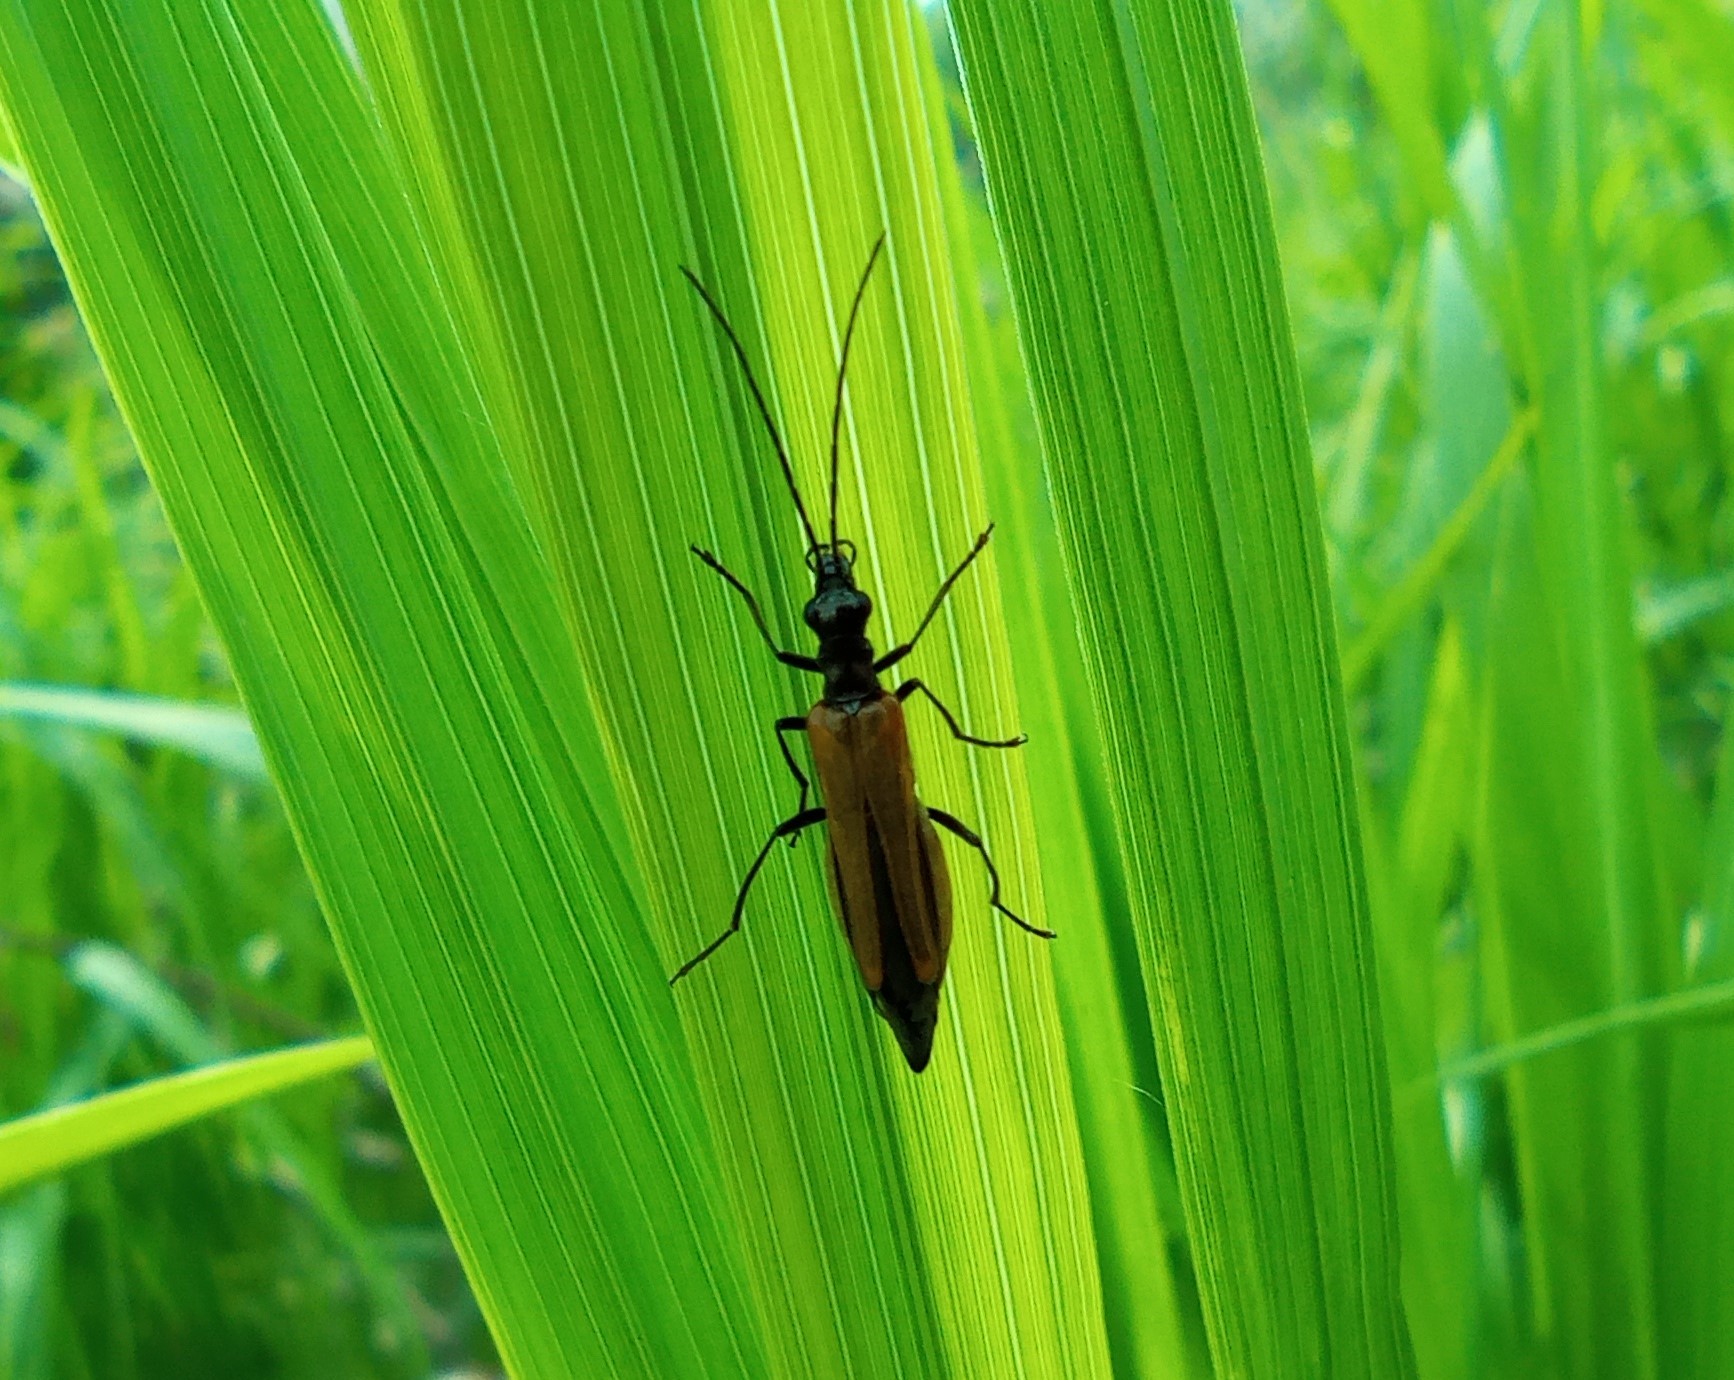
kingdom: Animalia
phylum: Arthropoda
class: Insecta
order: Coleoptera
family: Oedemeridae
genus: Oedemera
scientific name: Oedemera femorata
